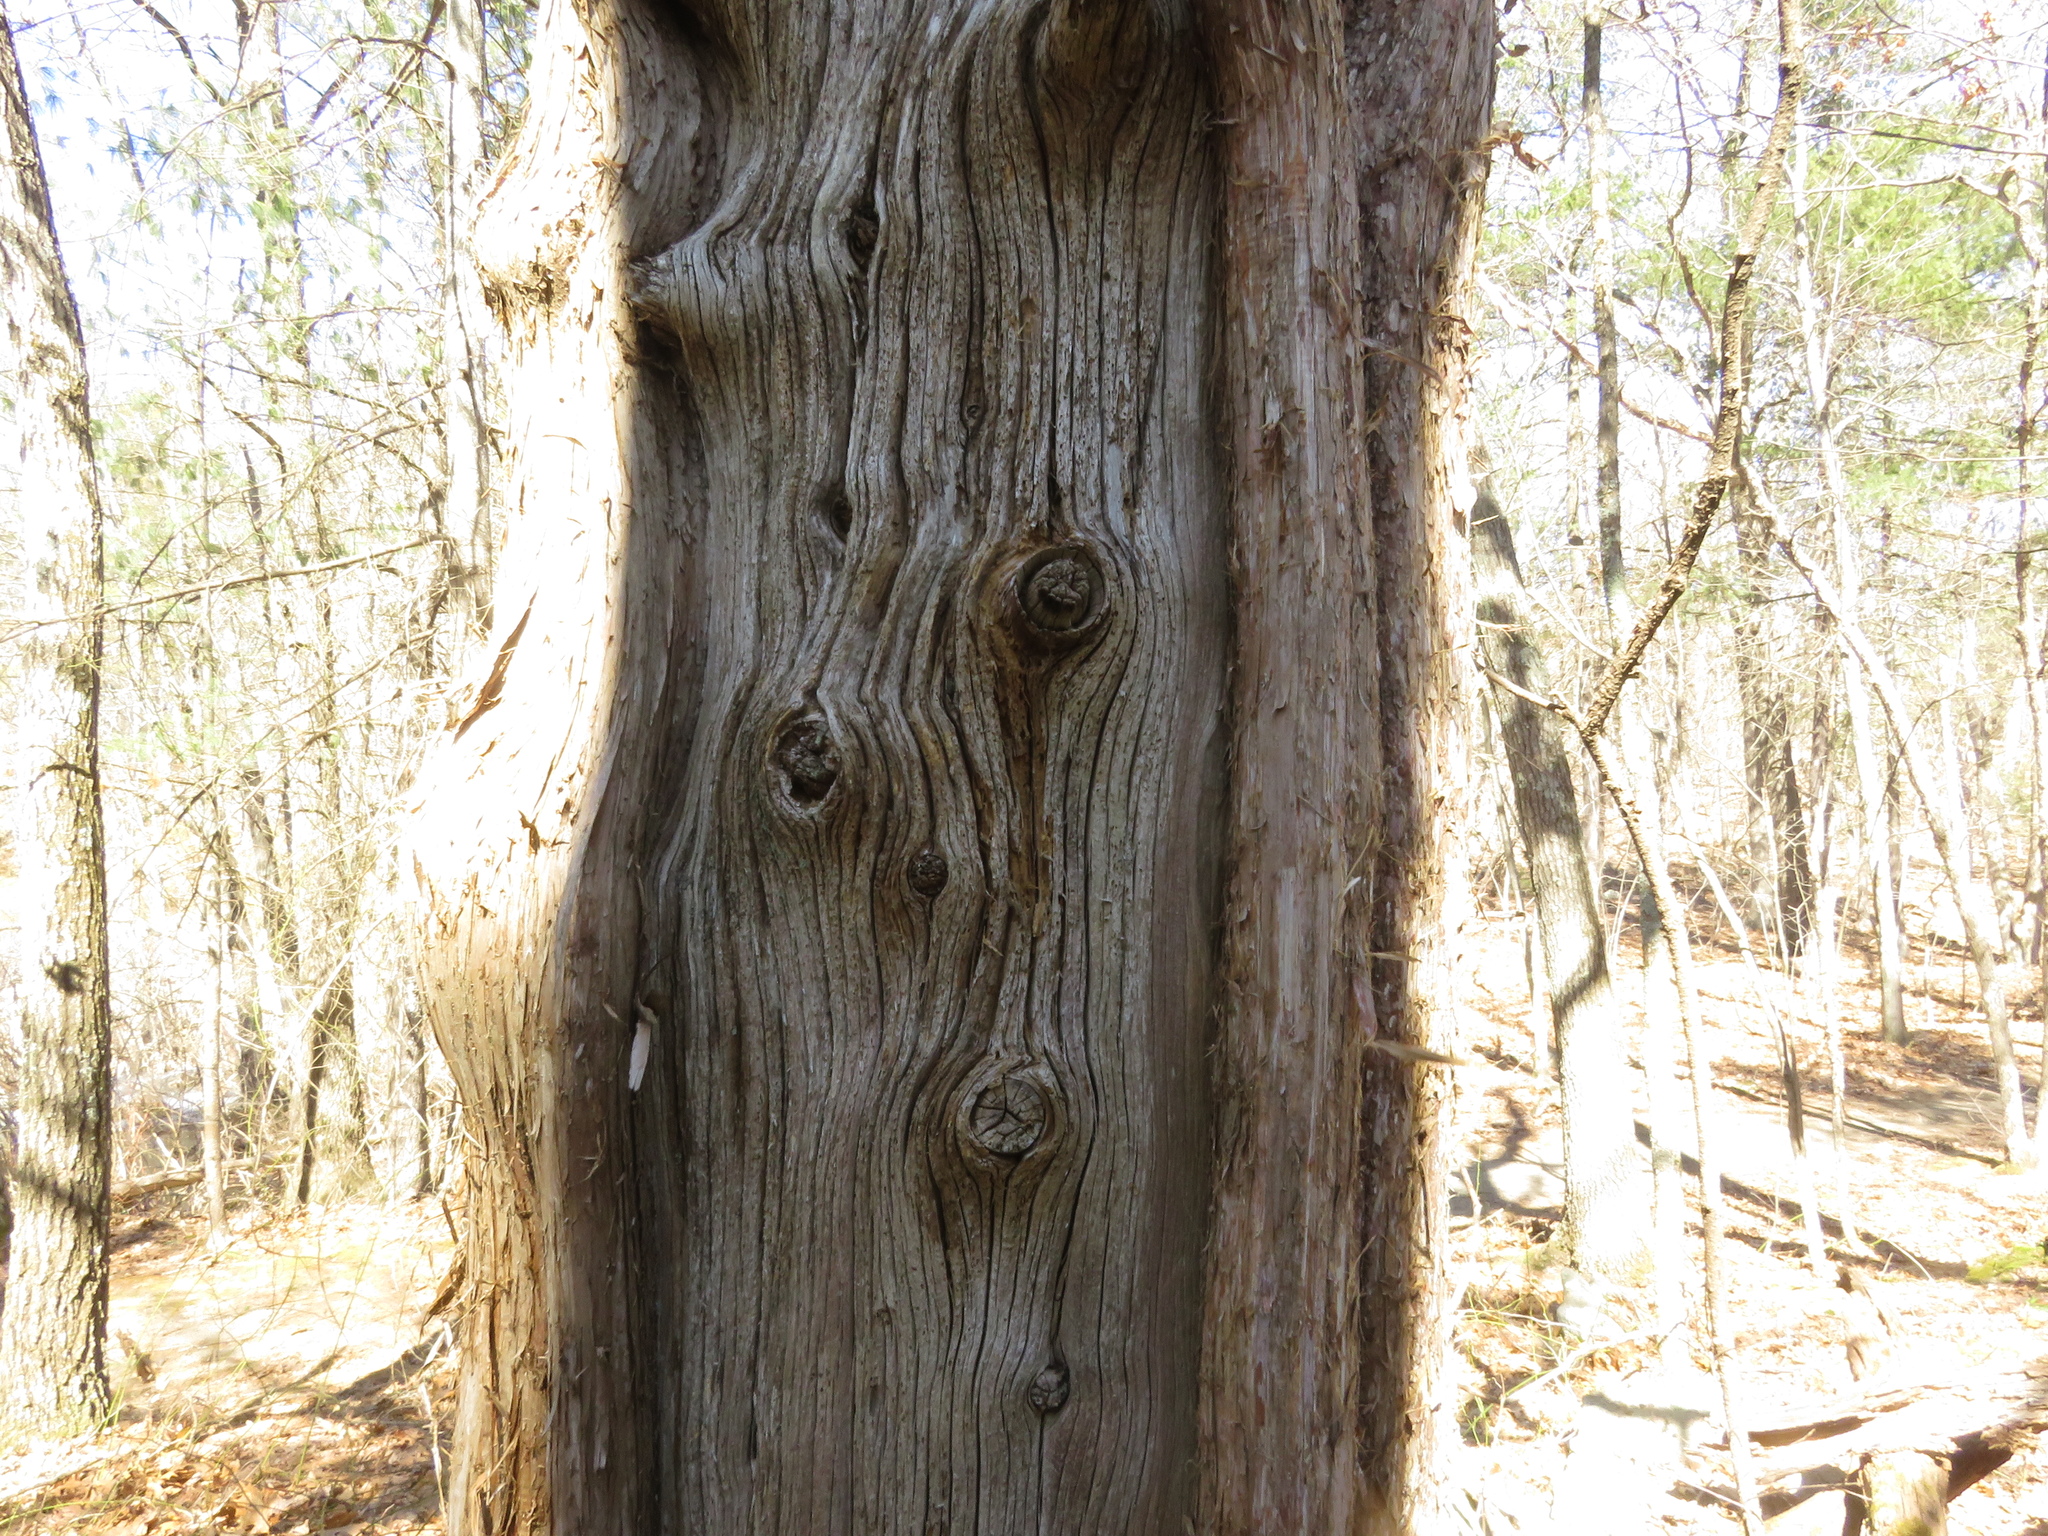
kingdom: Plantae
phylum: Tracheophyta
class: Pinopsida
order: Pinales
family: Cupressaceae
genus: Juniperus
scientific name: Juniperus virginiana
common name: Red juniper
